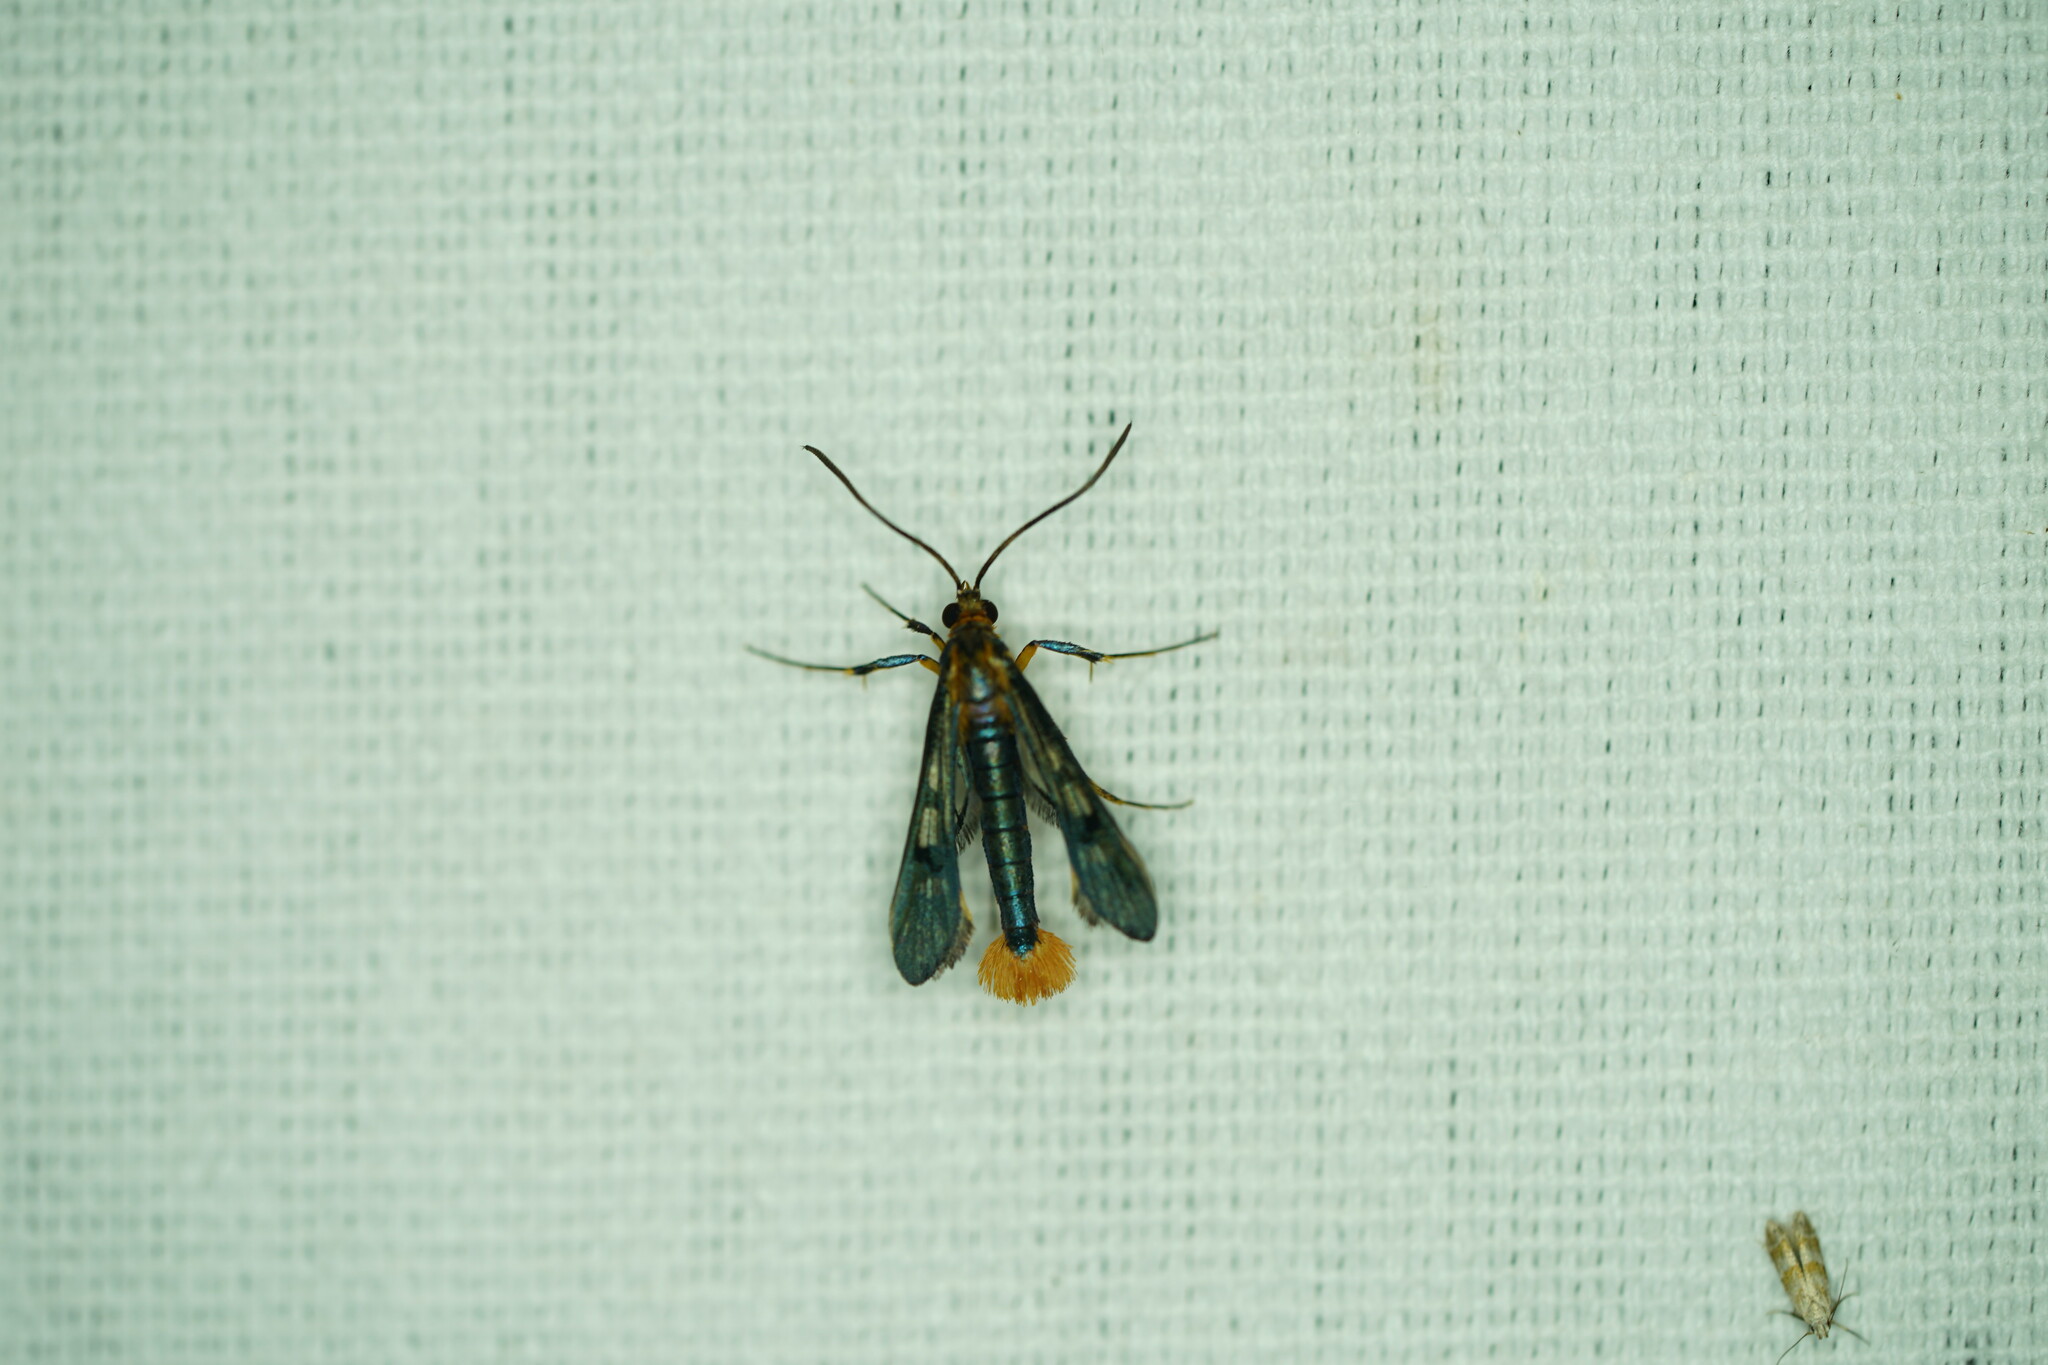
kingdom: Animalia
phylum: Arthropoda
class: Insecta
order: Lepidoptera
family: Sesiidae
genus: Synanthedon
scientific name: Synanthedon acerni
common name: Maple callus borer moth
